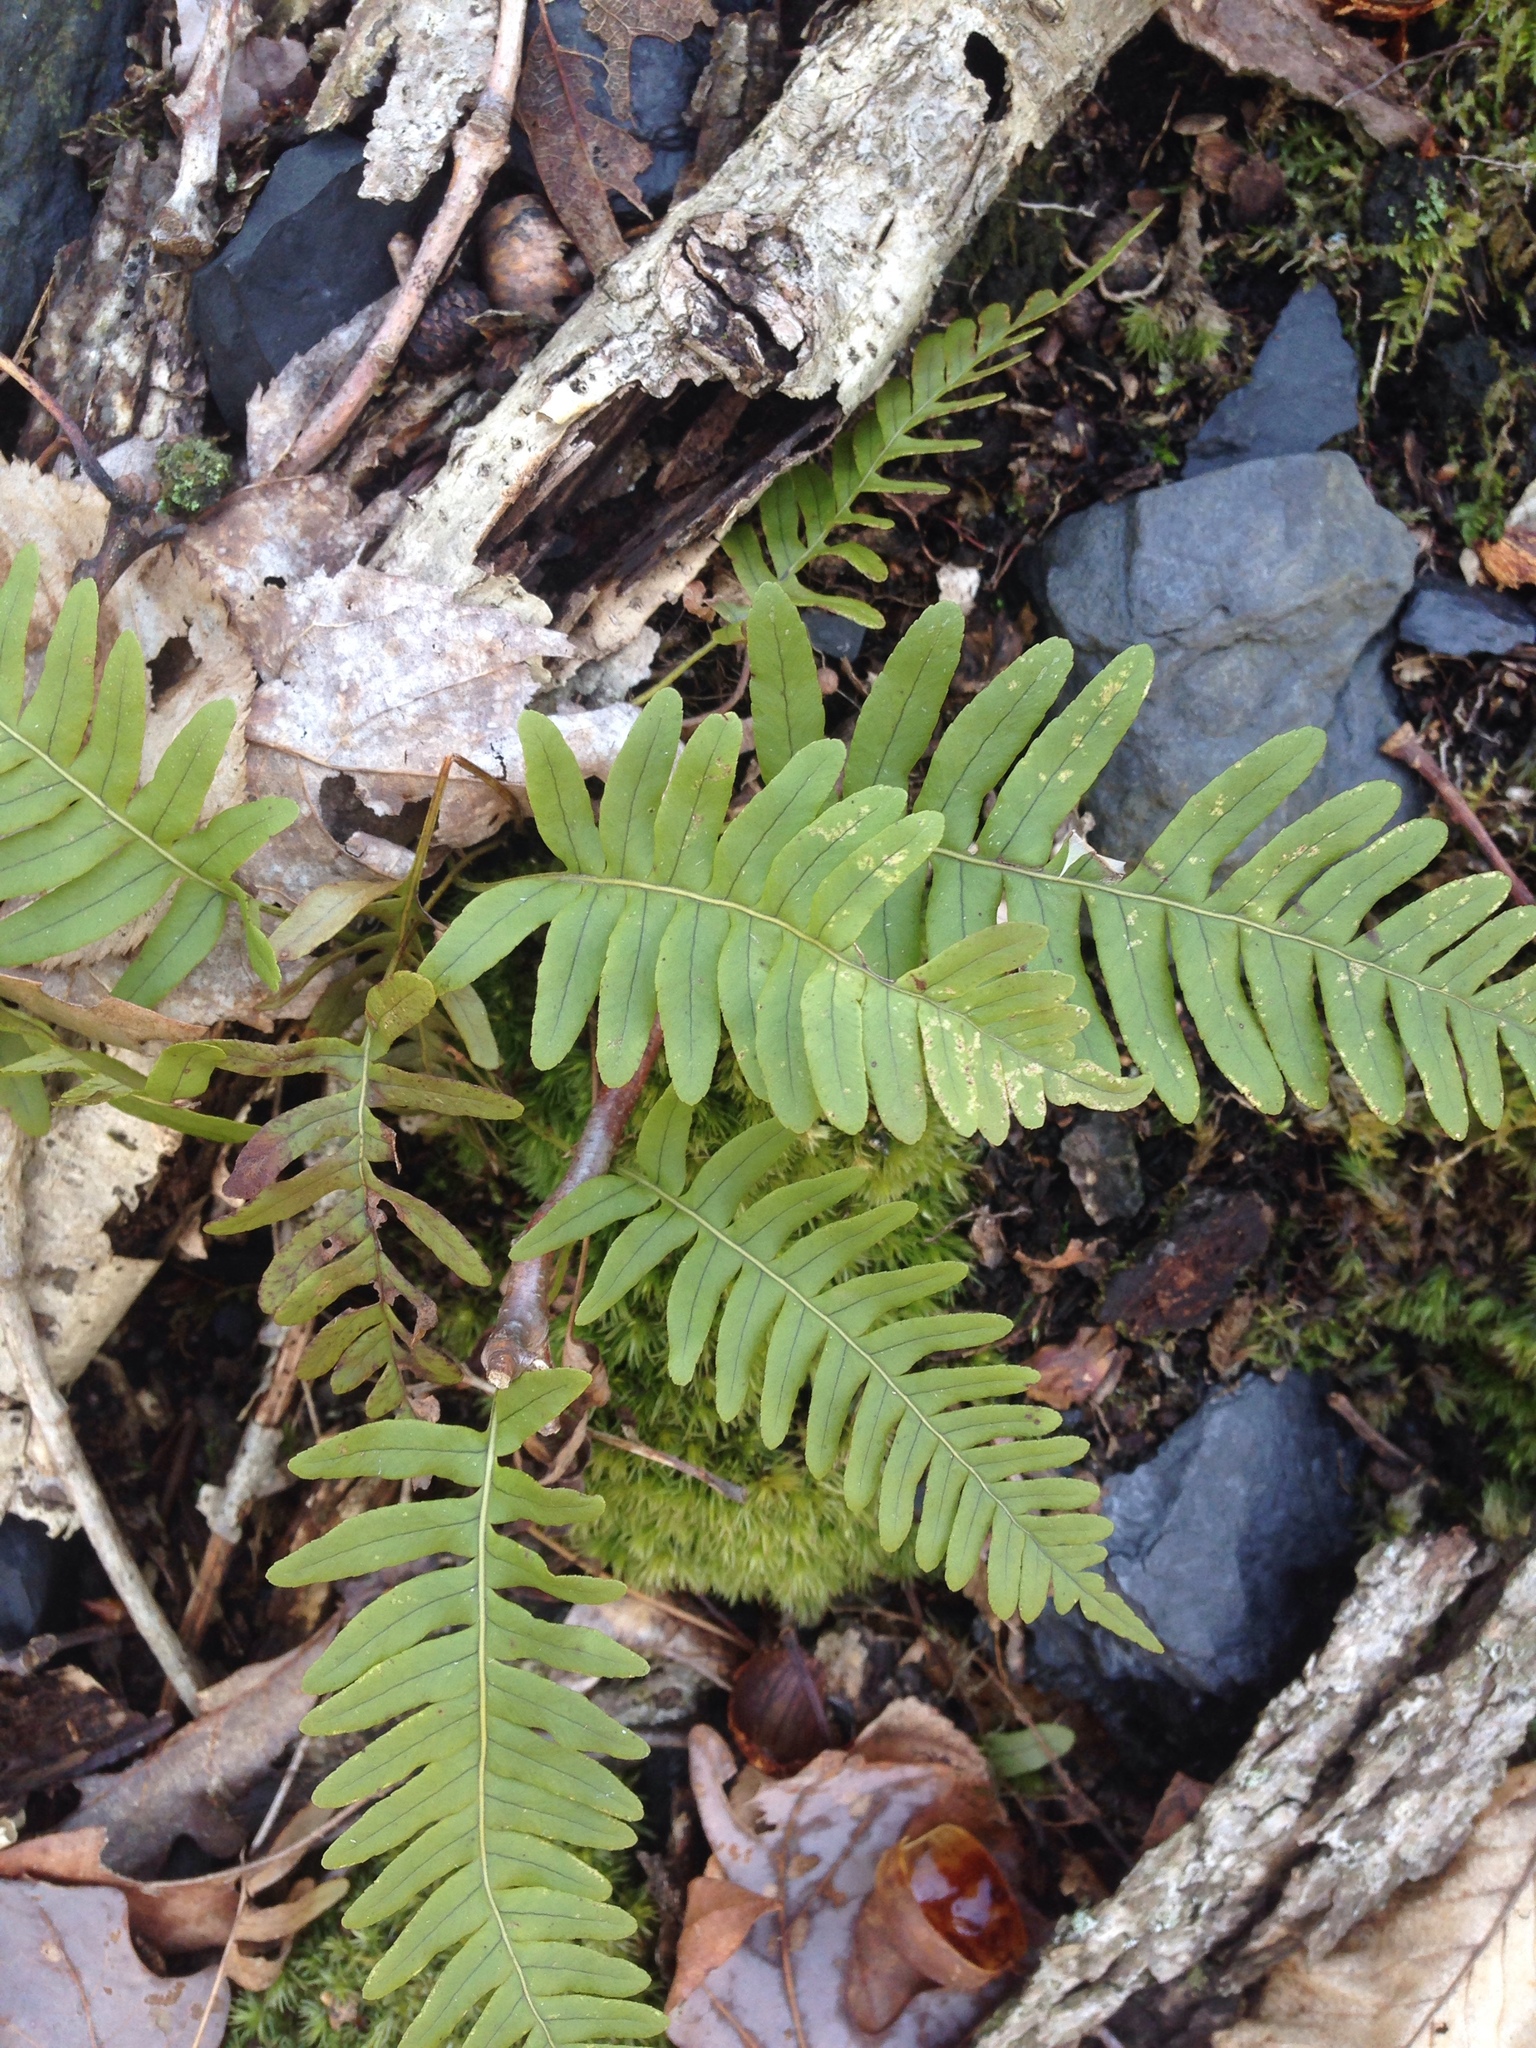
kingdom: Plantae
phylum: Tracheophyta
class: Polypodiopsida
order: Polypodiales
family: Polypodiaceae
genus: Polypodium
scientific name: Polypodium virginianum
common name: American wall fern
